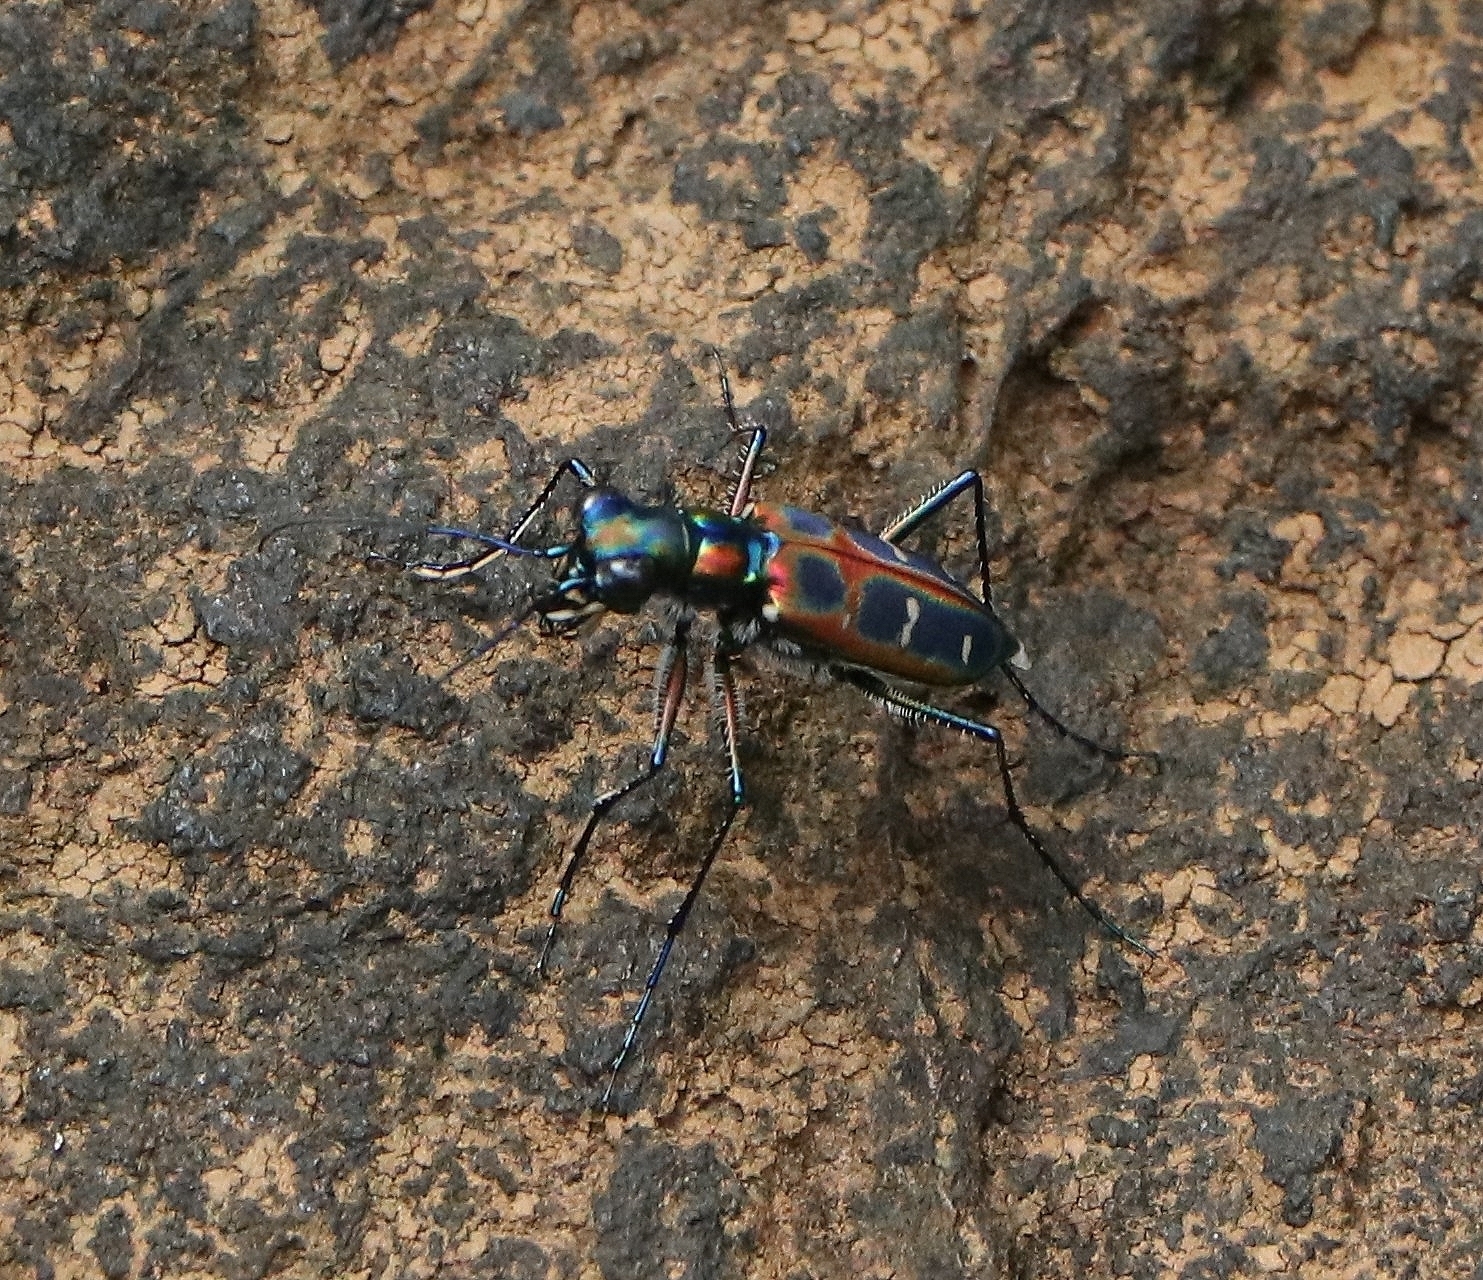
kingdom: Animalia
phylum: Arthropoda
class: Insecta
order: Coleoptera
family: Carabidae
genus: Cicindela
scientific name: Cicindela barmanica
